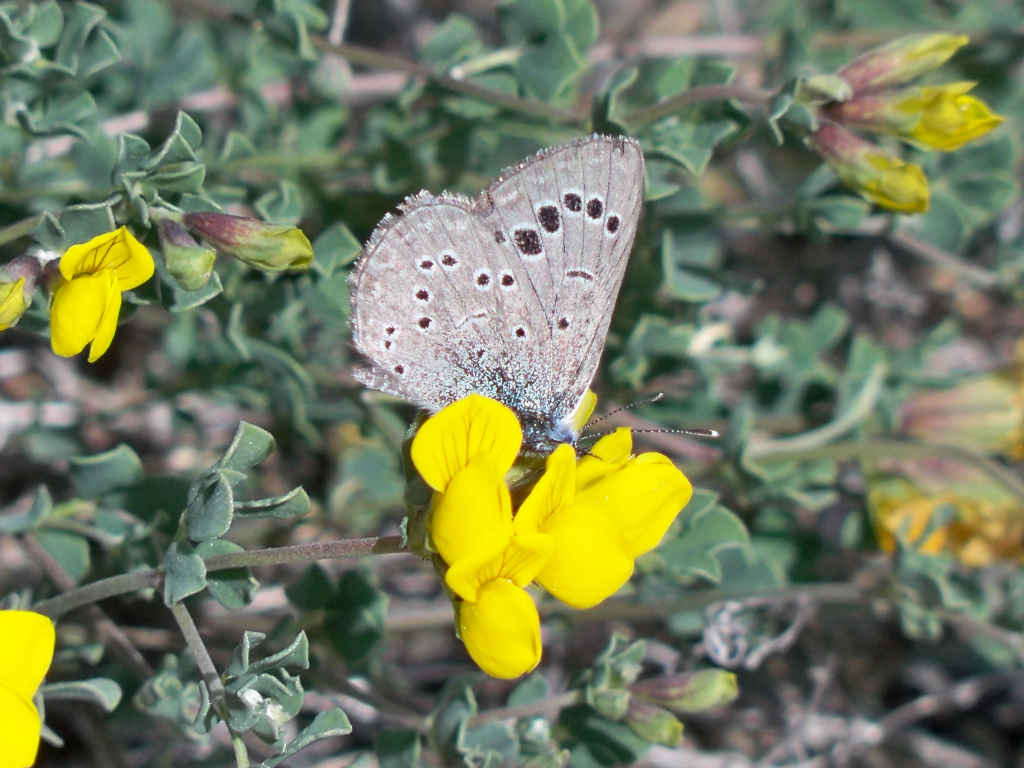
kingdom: Animalia
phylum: Arthropoda
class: Insecta
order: Lepidoptera
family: Lycaenidae
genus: Glaucopsyche
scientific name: Glaucopsyche melanops
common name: Black-eyed blue
